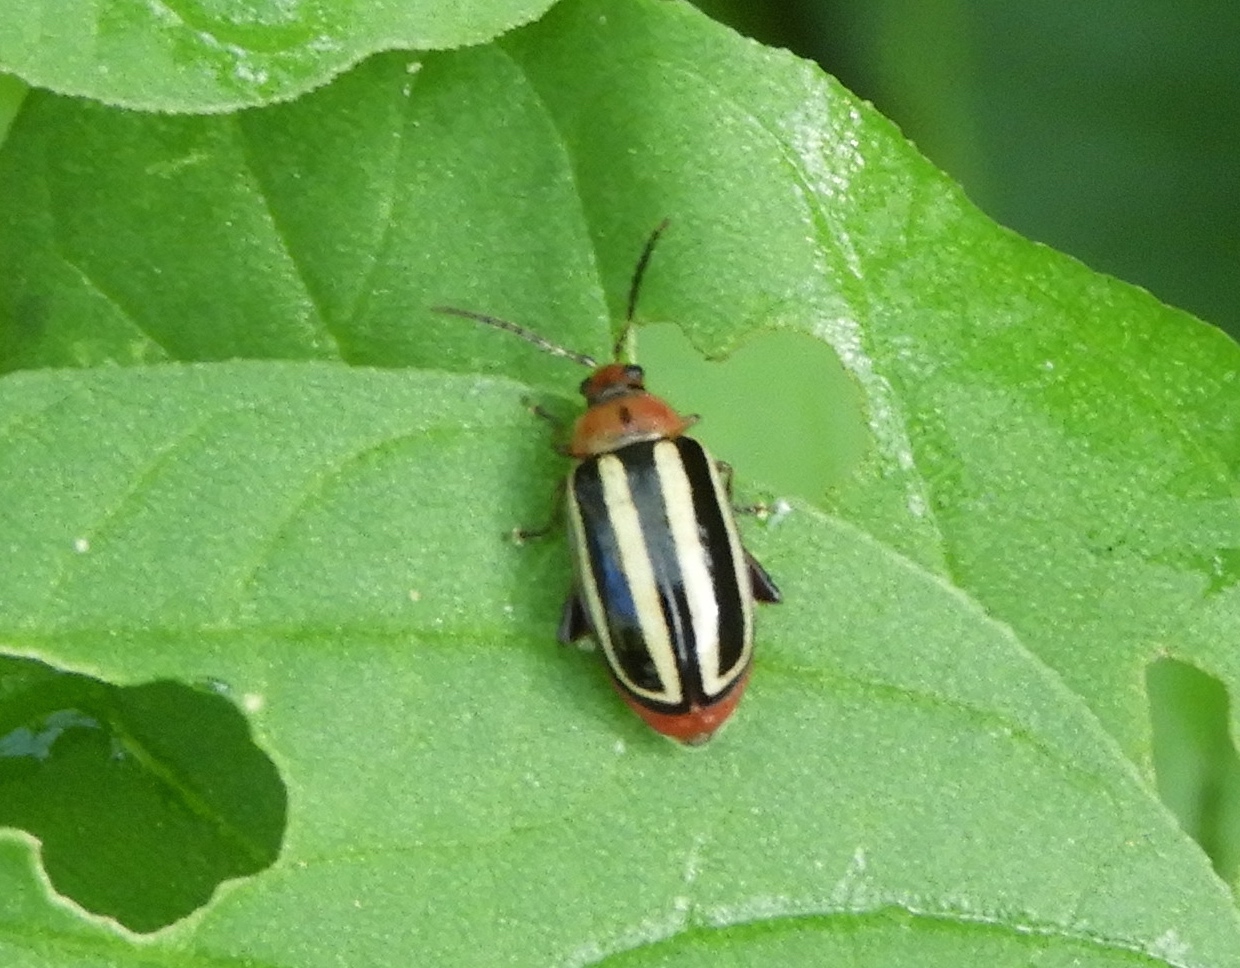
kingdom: Animalia
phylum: Arthropoda
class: Insecta
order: Coleoptera
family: Chrysomelidae
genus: Disonycha
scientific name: Disonycha glabrata
